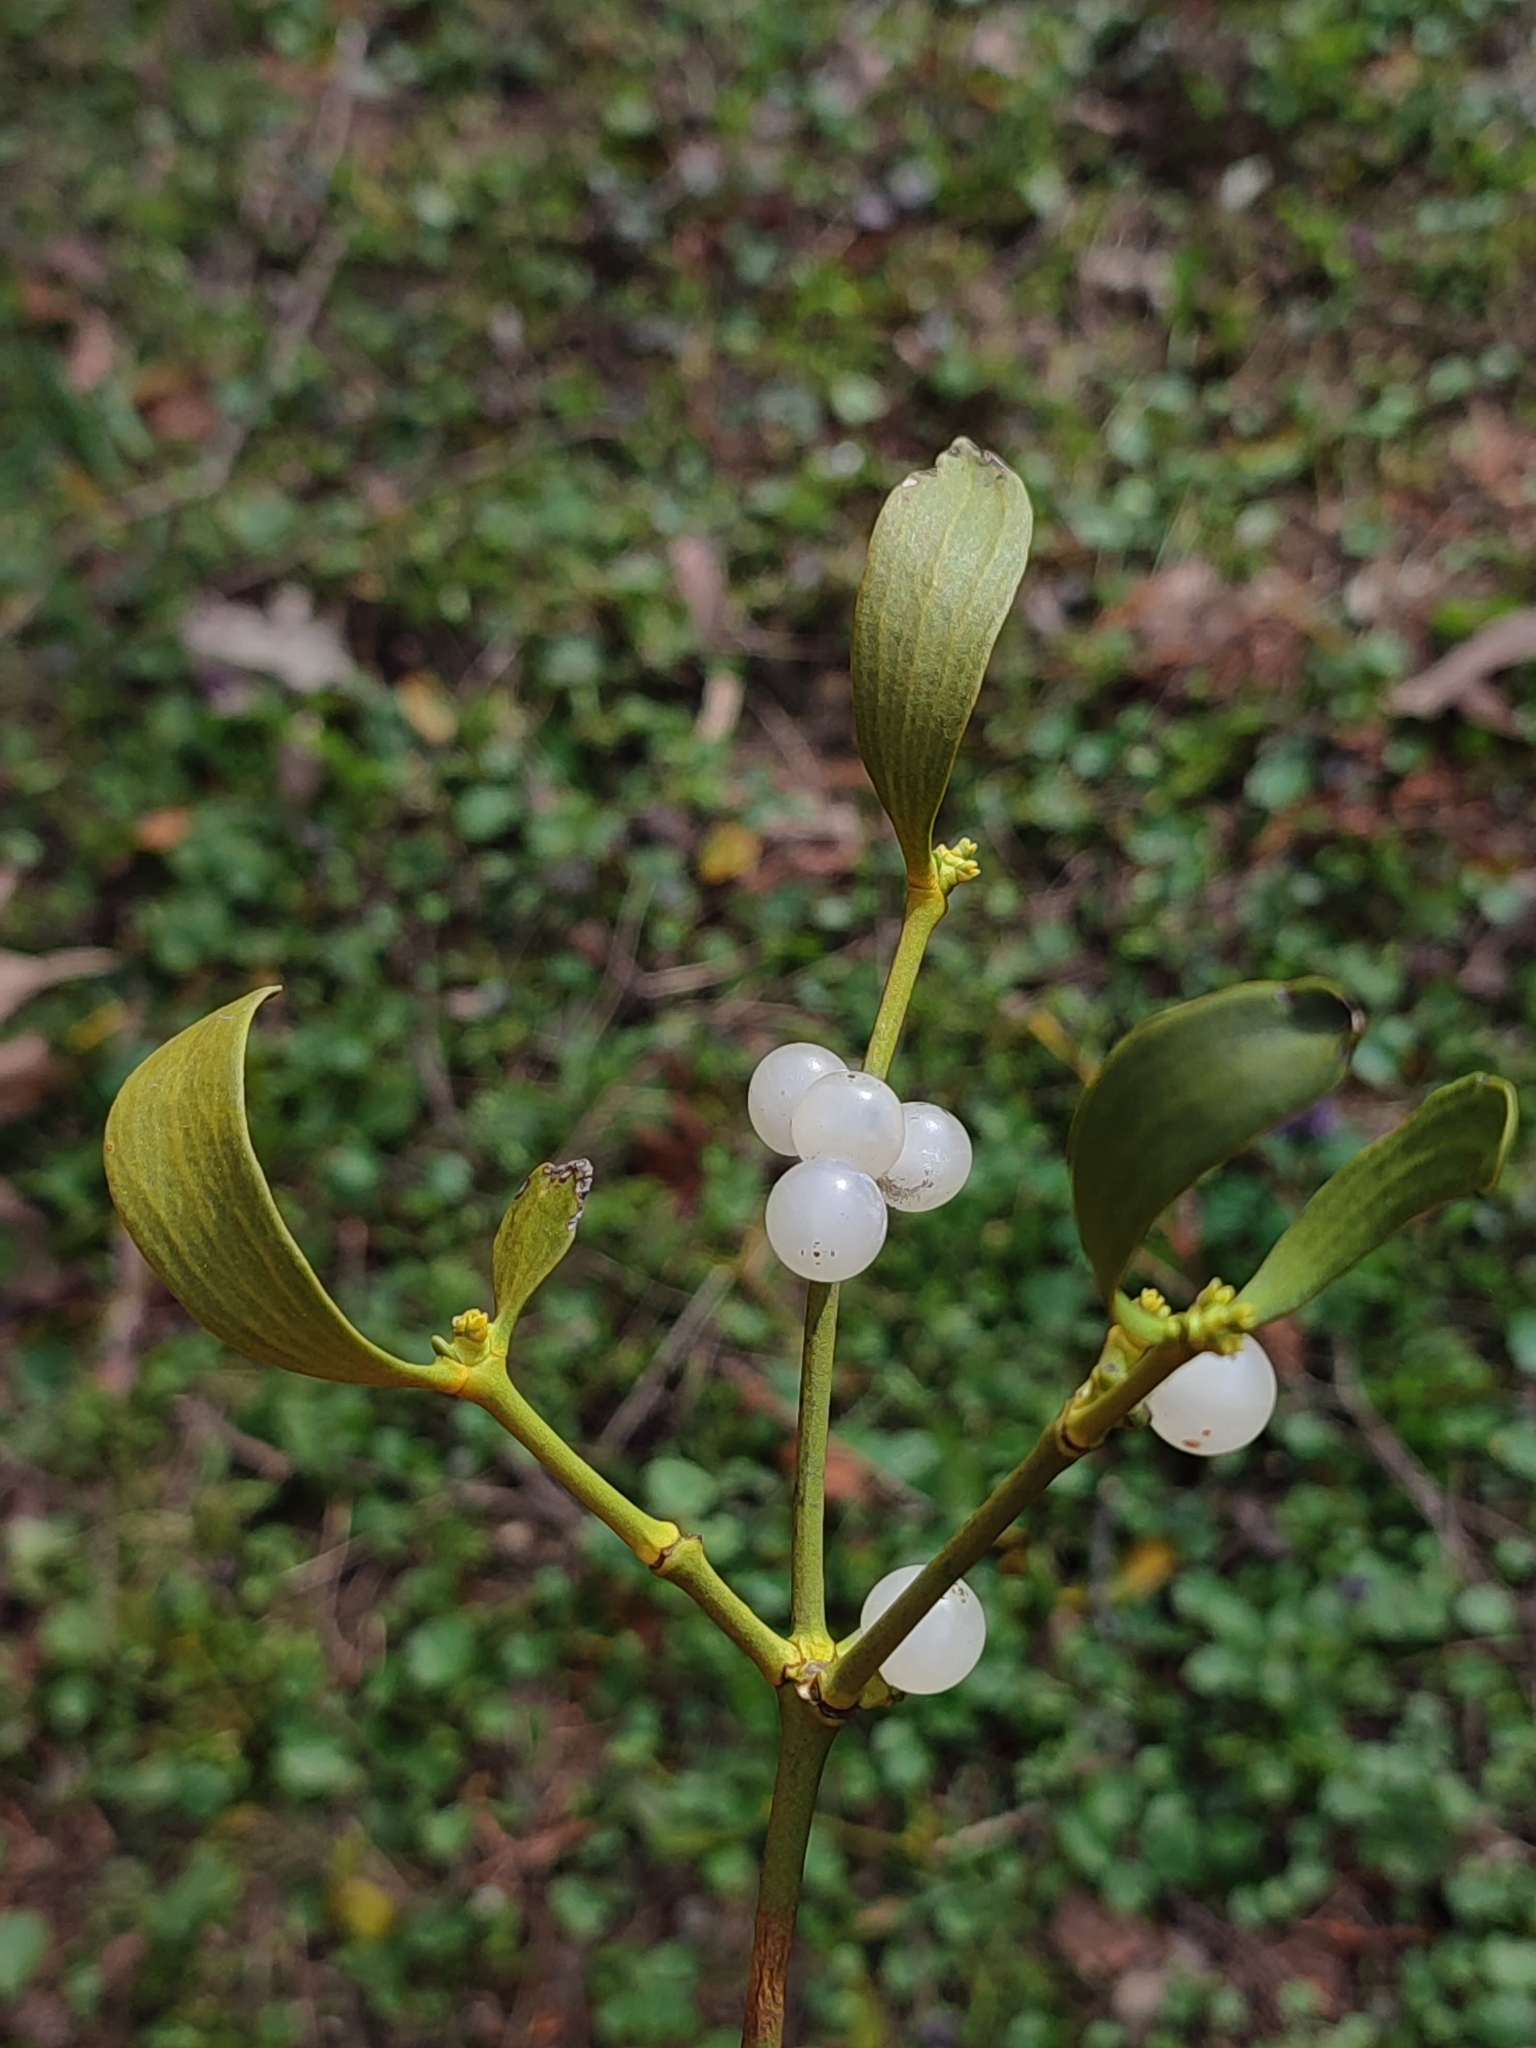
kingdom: Plantae
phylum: Tracheophyta
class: Magnoliopsida
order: Santalales
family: Viscaceae
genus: Viscum
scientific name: Viscum album
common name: Mistletoe
